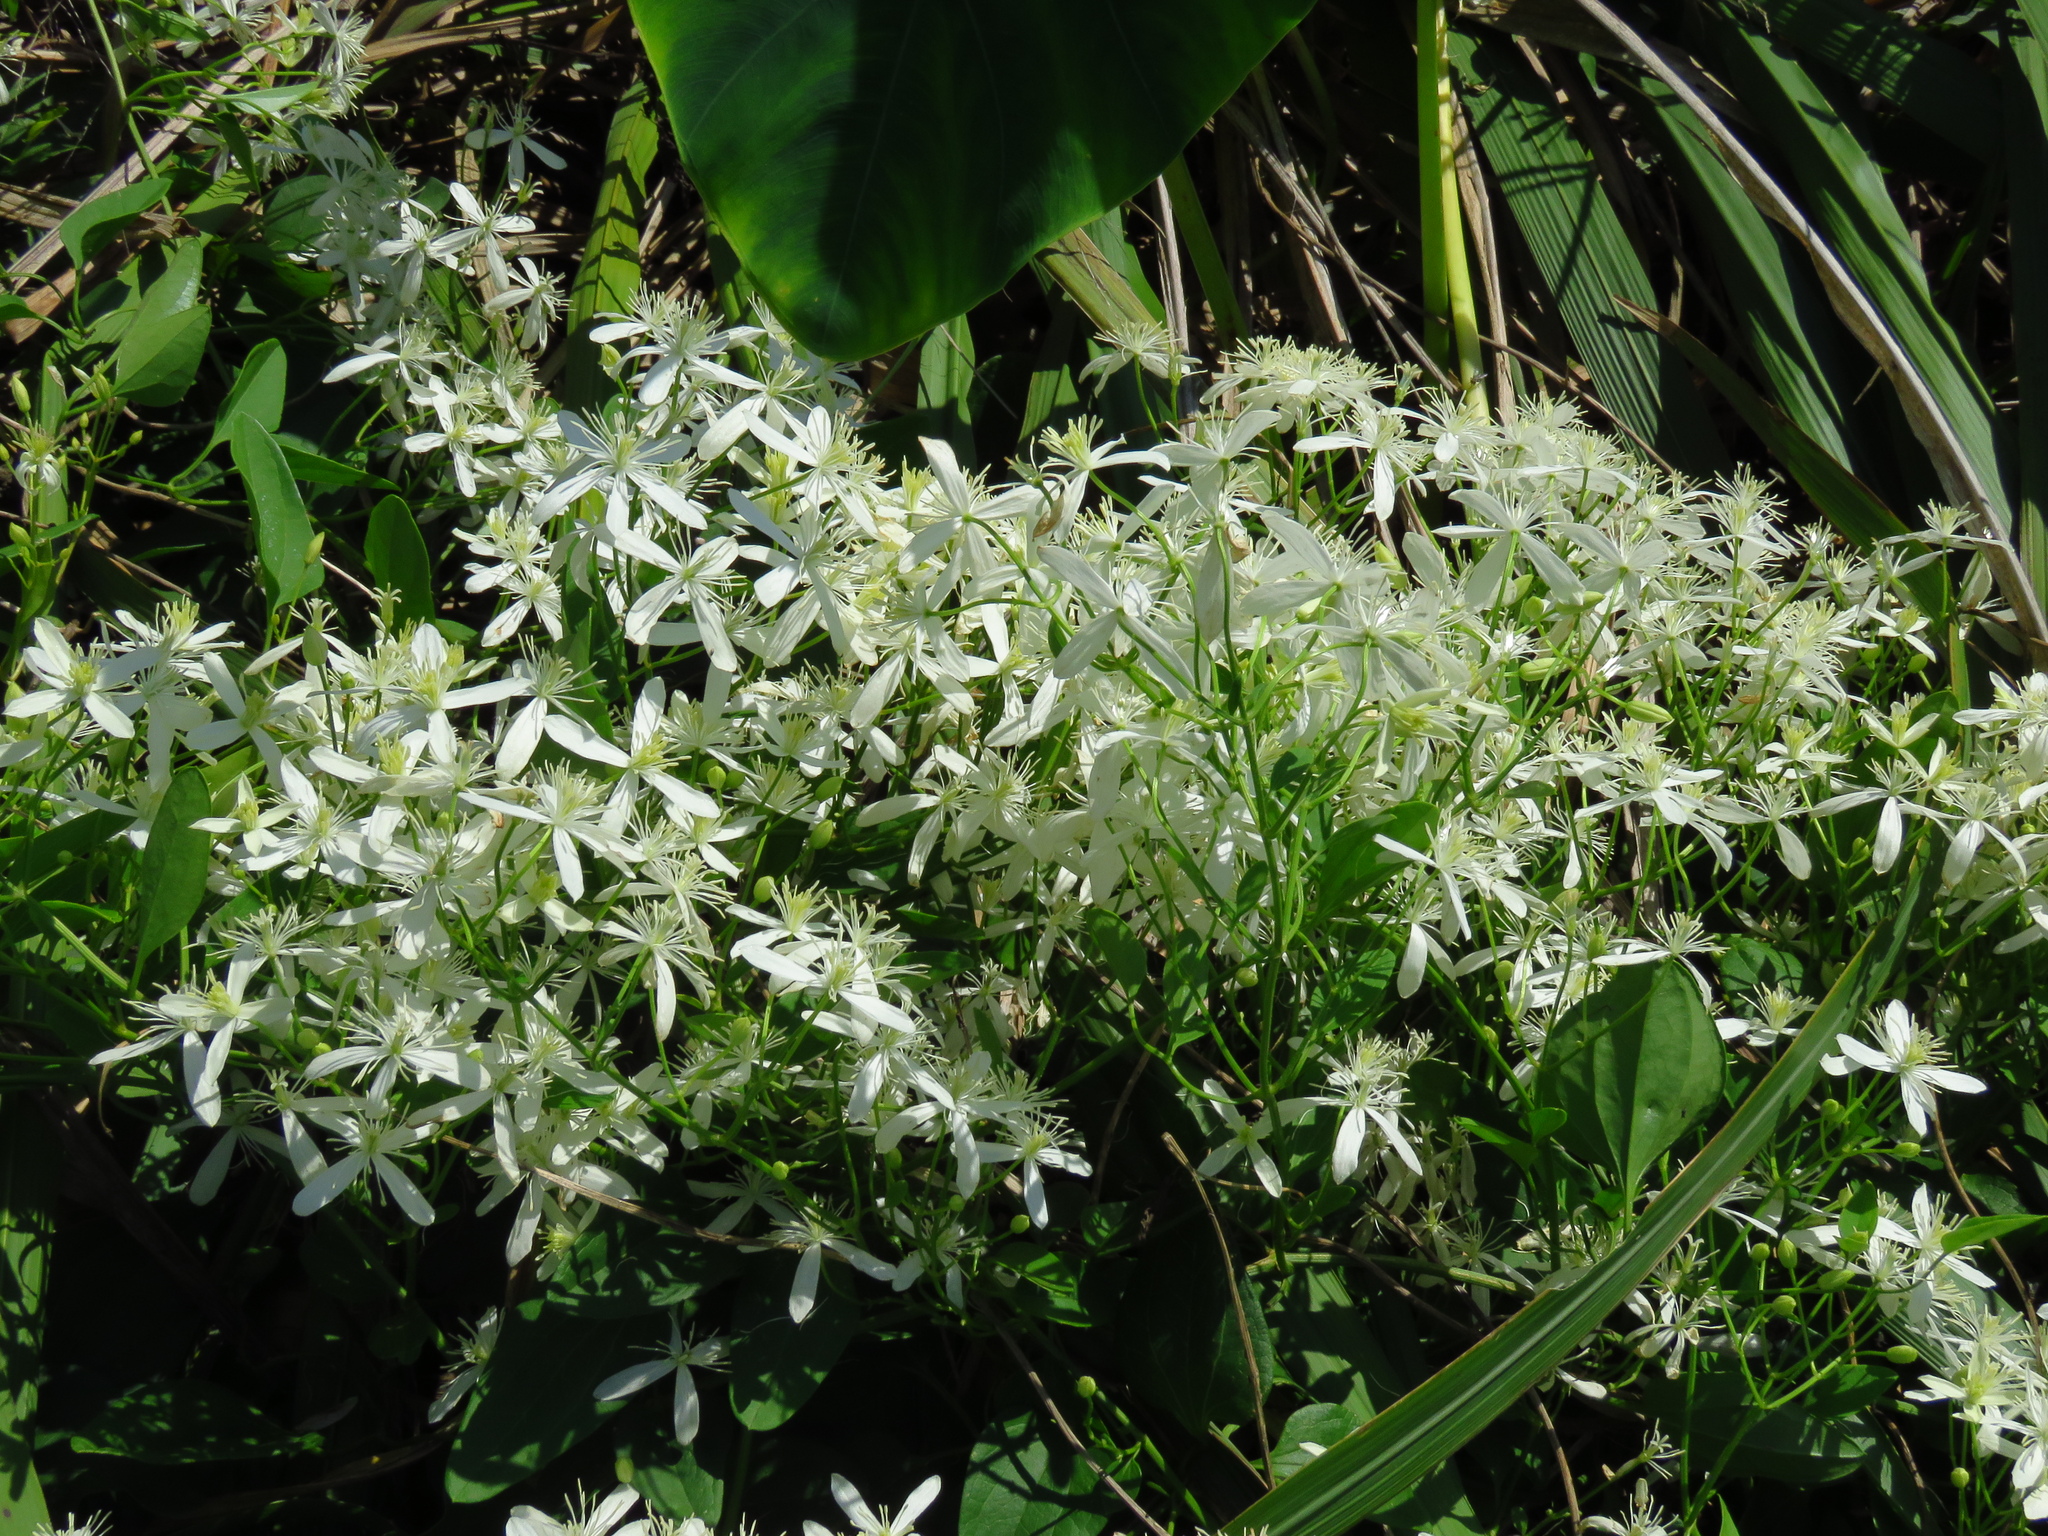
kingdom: Plantae
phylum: Tracheophyta
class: Magnoliopsida
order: Ranunculales
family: Ranunculaceae
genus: Clematis
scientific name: Clematis terniflora
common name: Sweet autumn clematis
